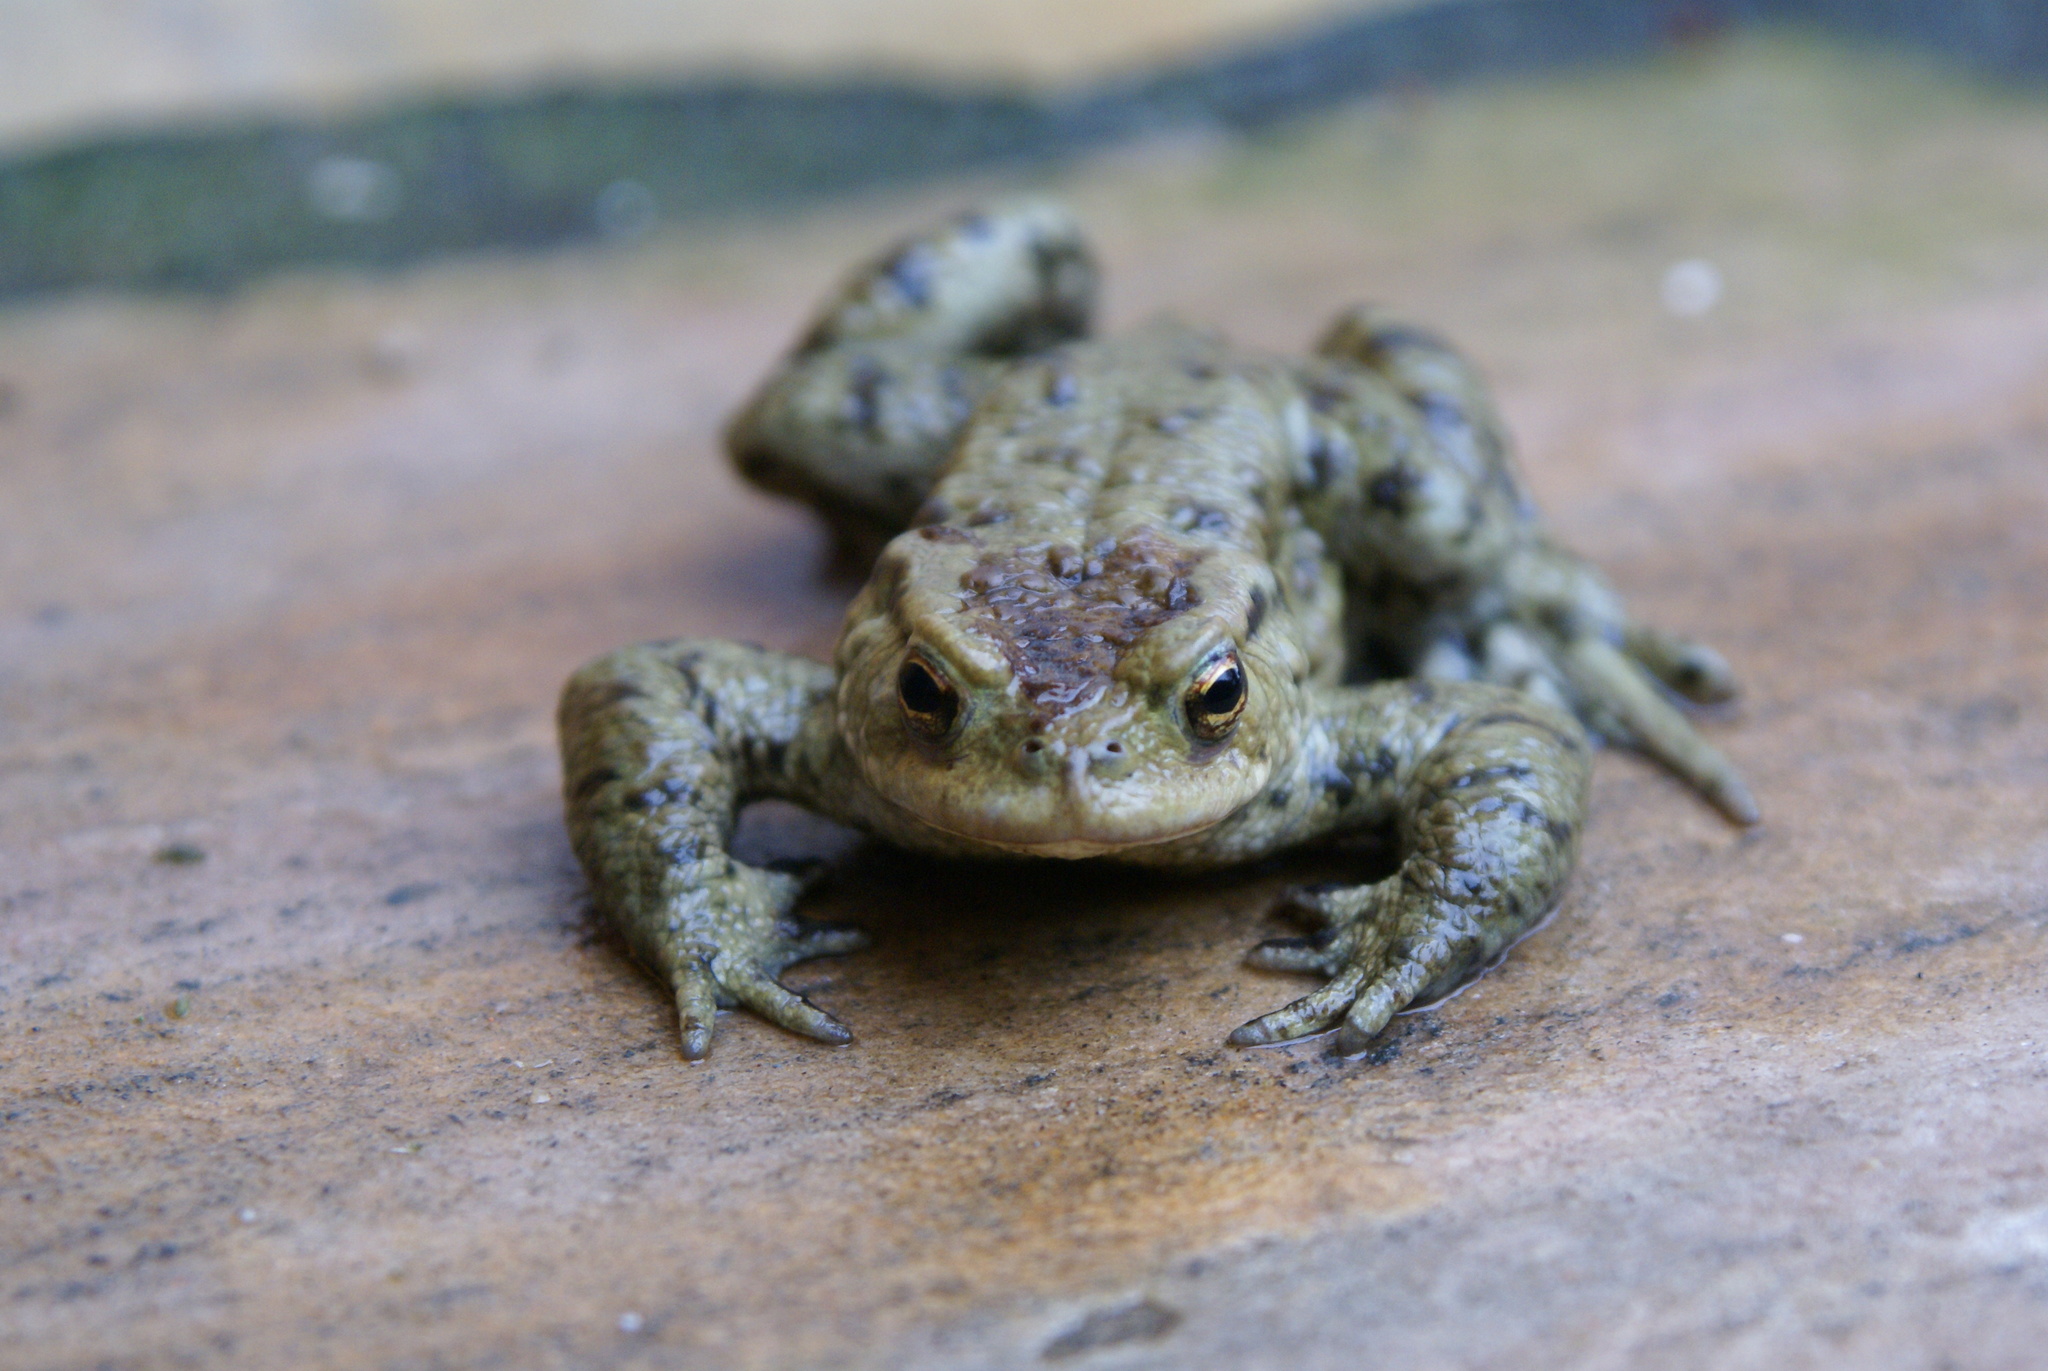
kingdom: Animalia
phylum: Chordata
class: Amphibia
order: Anura
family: Bufonidae
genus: Bufo
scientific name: Bufo bufo
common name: Common toad
